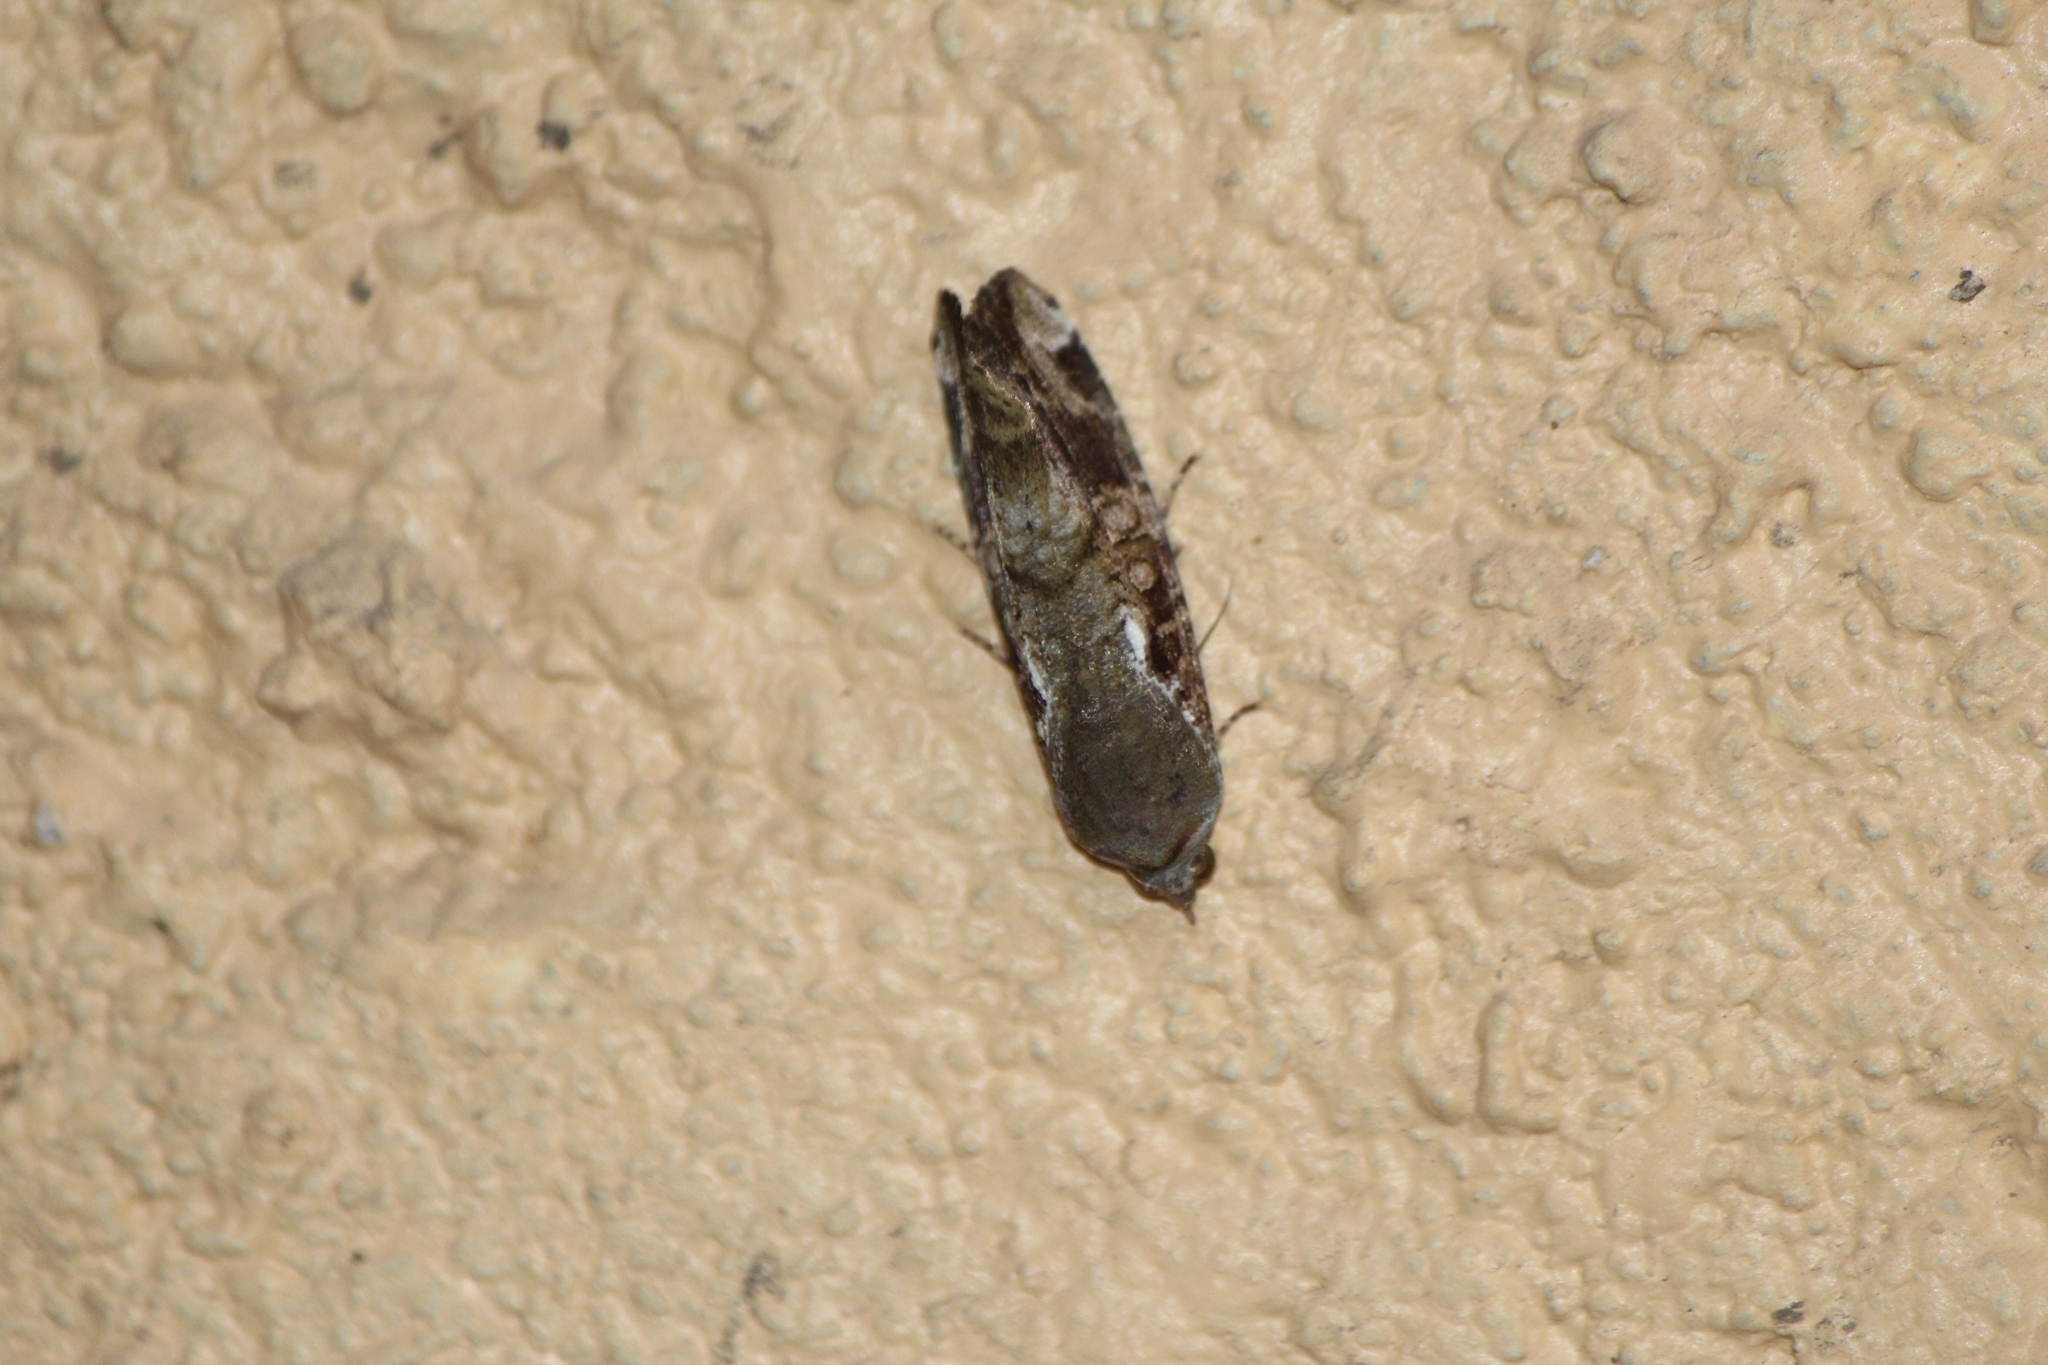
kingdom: Animalia
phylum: Arthropoda
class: Insecta
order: Lepidoptera
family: Noctuidae
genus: Magusa
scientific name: Magusa divaricata
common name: Orb narrow-winged moth
